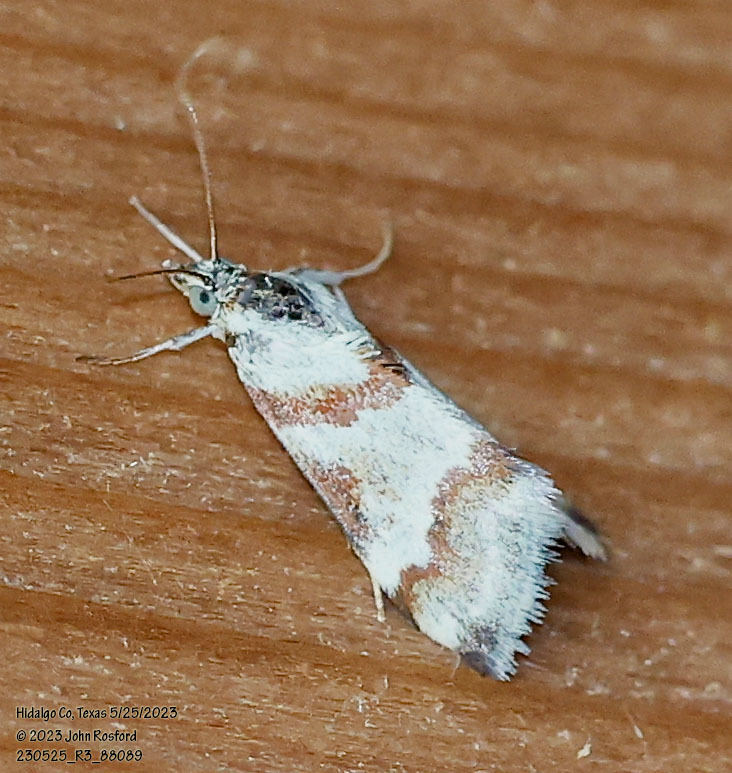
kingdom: Animalia
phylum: Arthropoda
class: Insecta
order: Lepidoptera
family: Crambidae
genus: Noctuelia
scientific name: Noctuelia Mimoschinia rufofascialis
